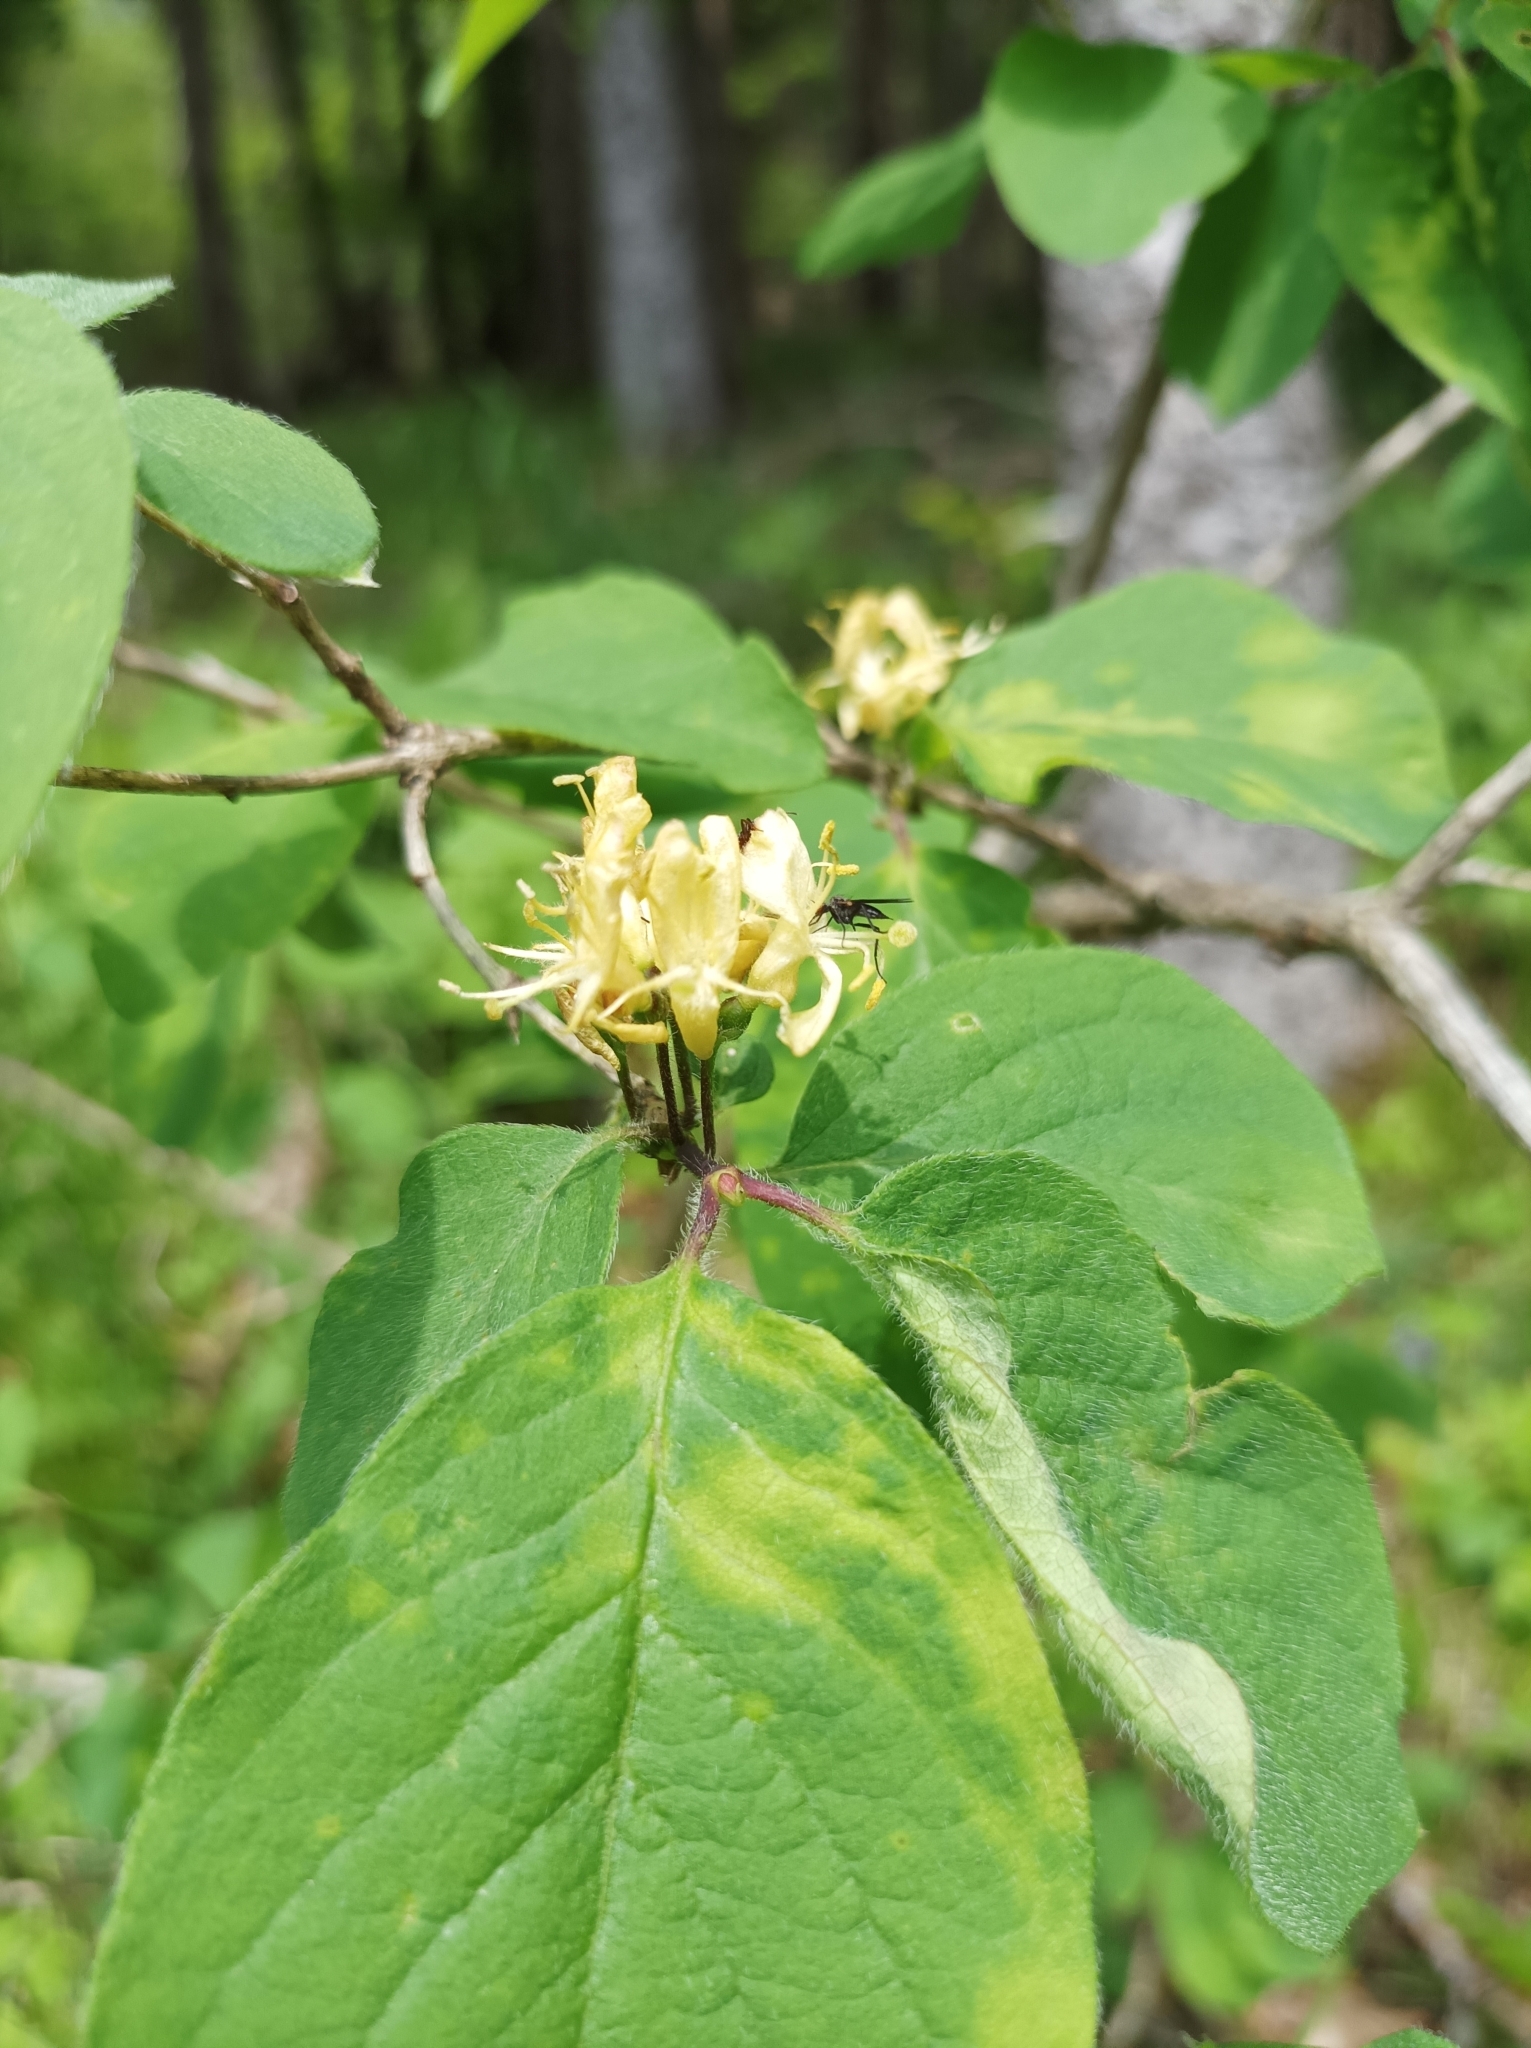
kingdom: Plantae
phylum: Tracheophyta
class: Magnoliopsida
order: Dipsacales
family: Caprifoliaceae
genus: Lonicera
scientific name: Lonicera xylosteum
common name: Fly honeysuckle
